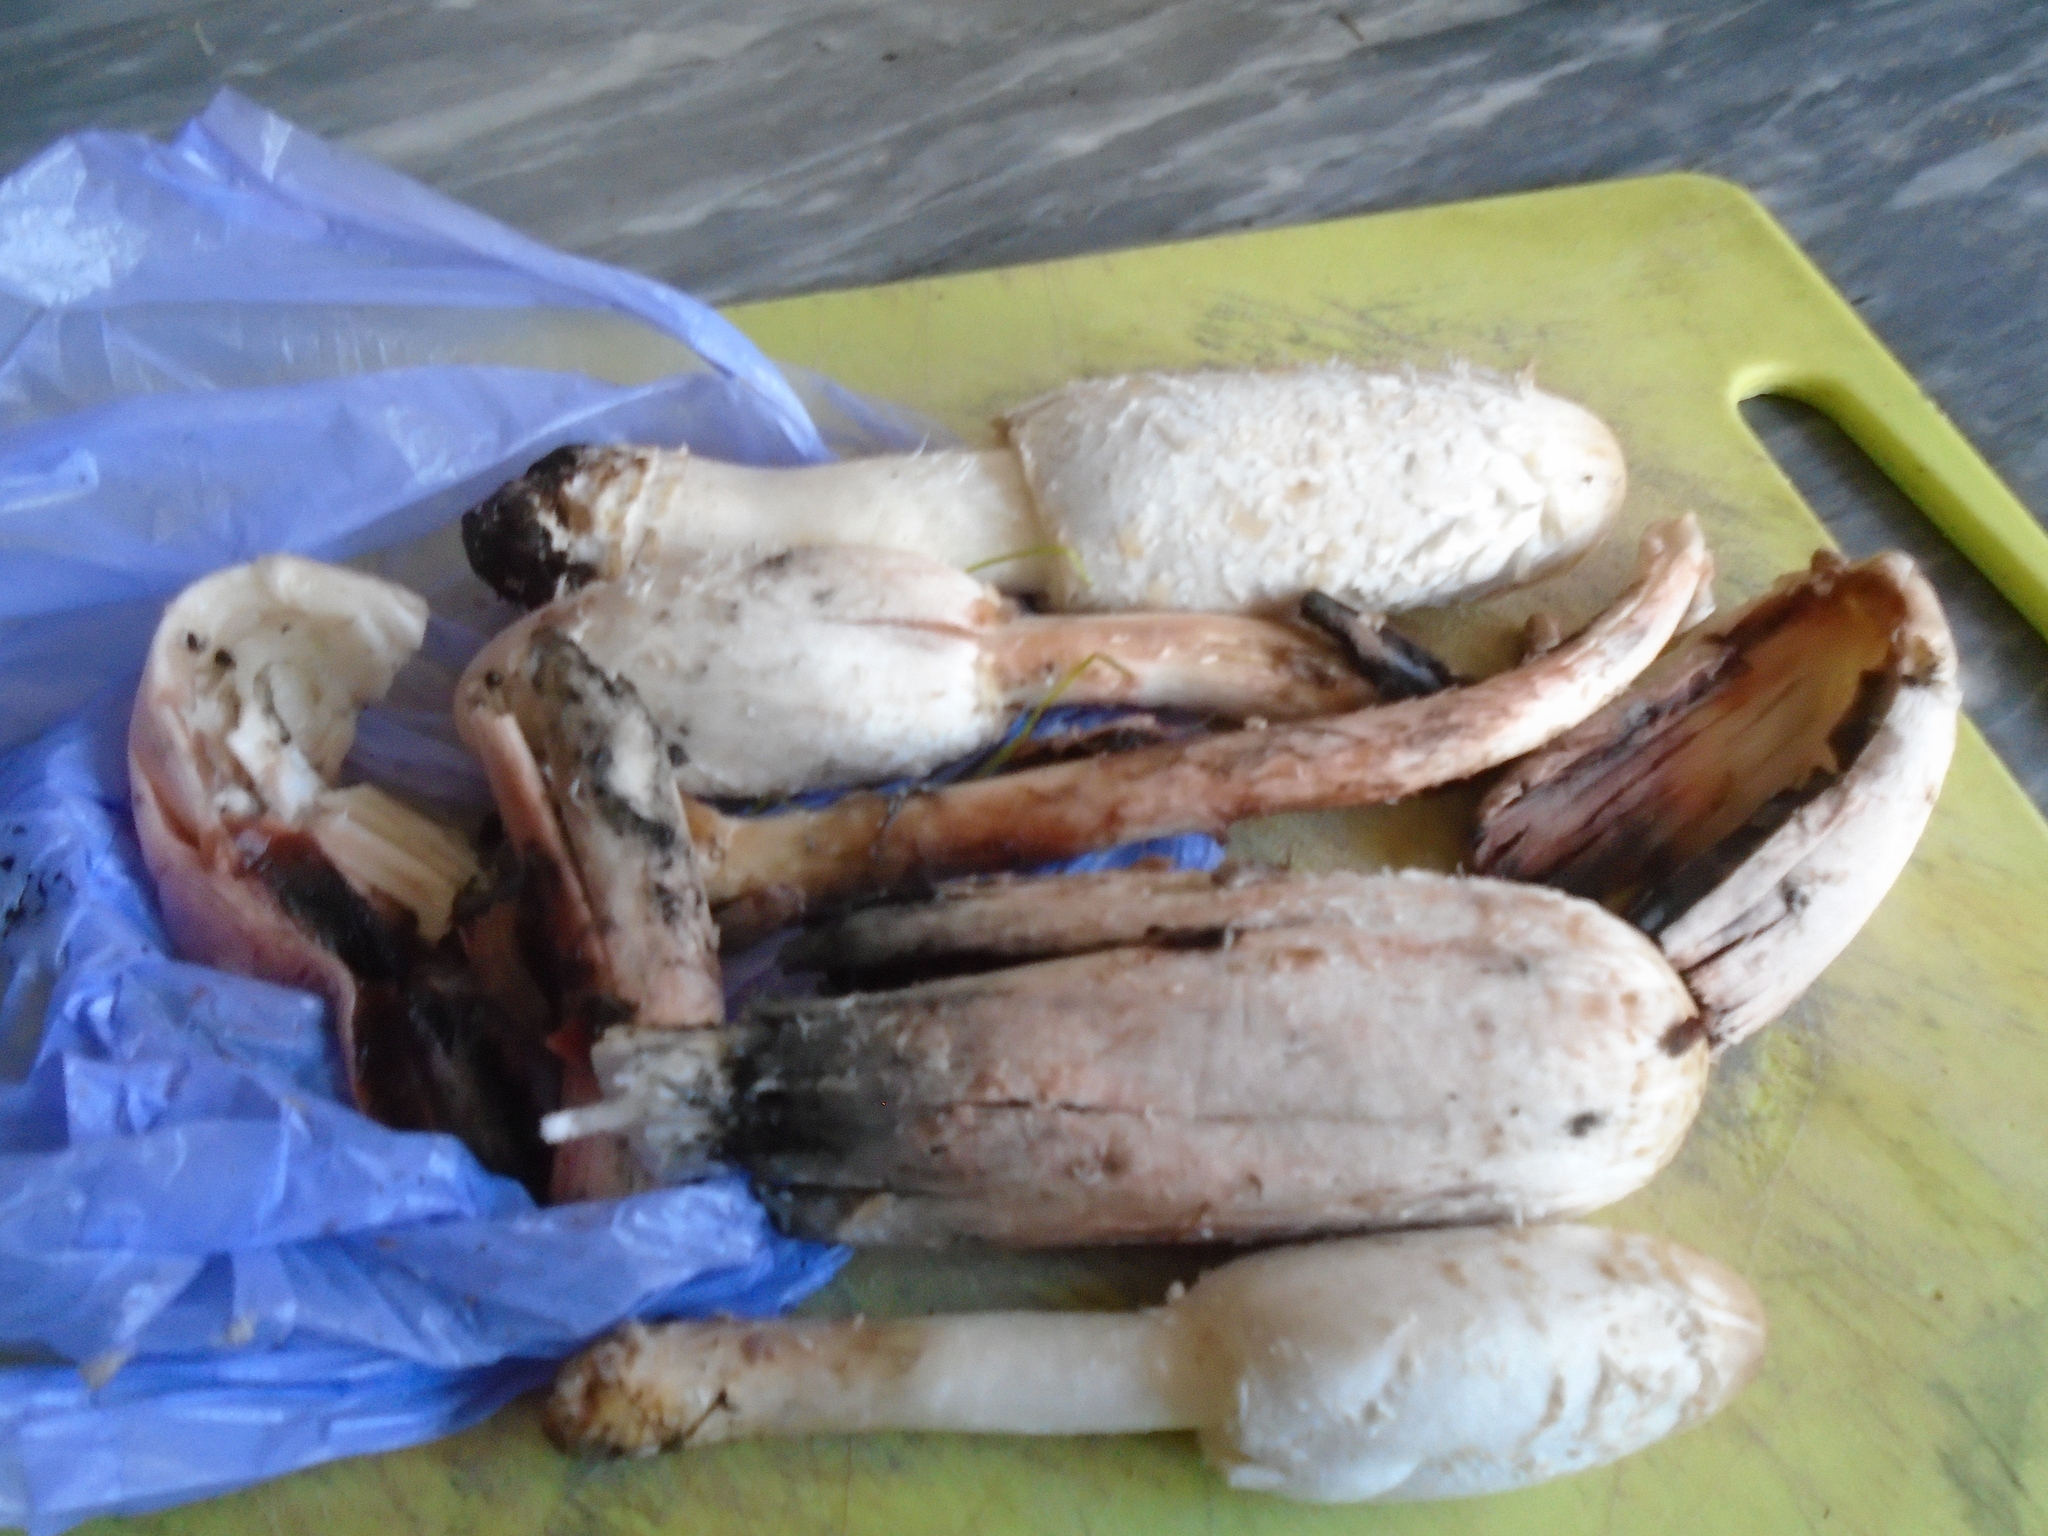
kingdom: Fungi
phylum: Basidiomycota
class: Agaricomycetes
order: Agaricales
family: Agaricaceae
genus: Coprinus
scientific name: Coprinus comatus
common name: Lawyer's wig
